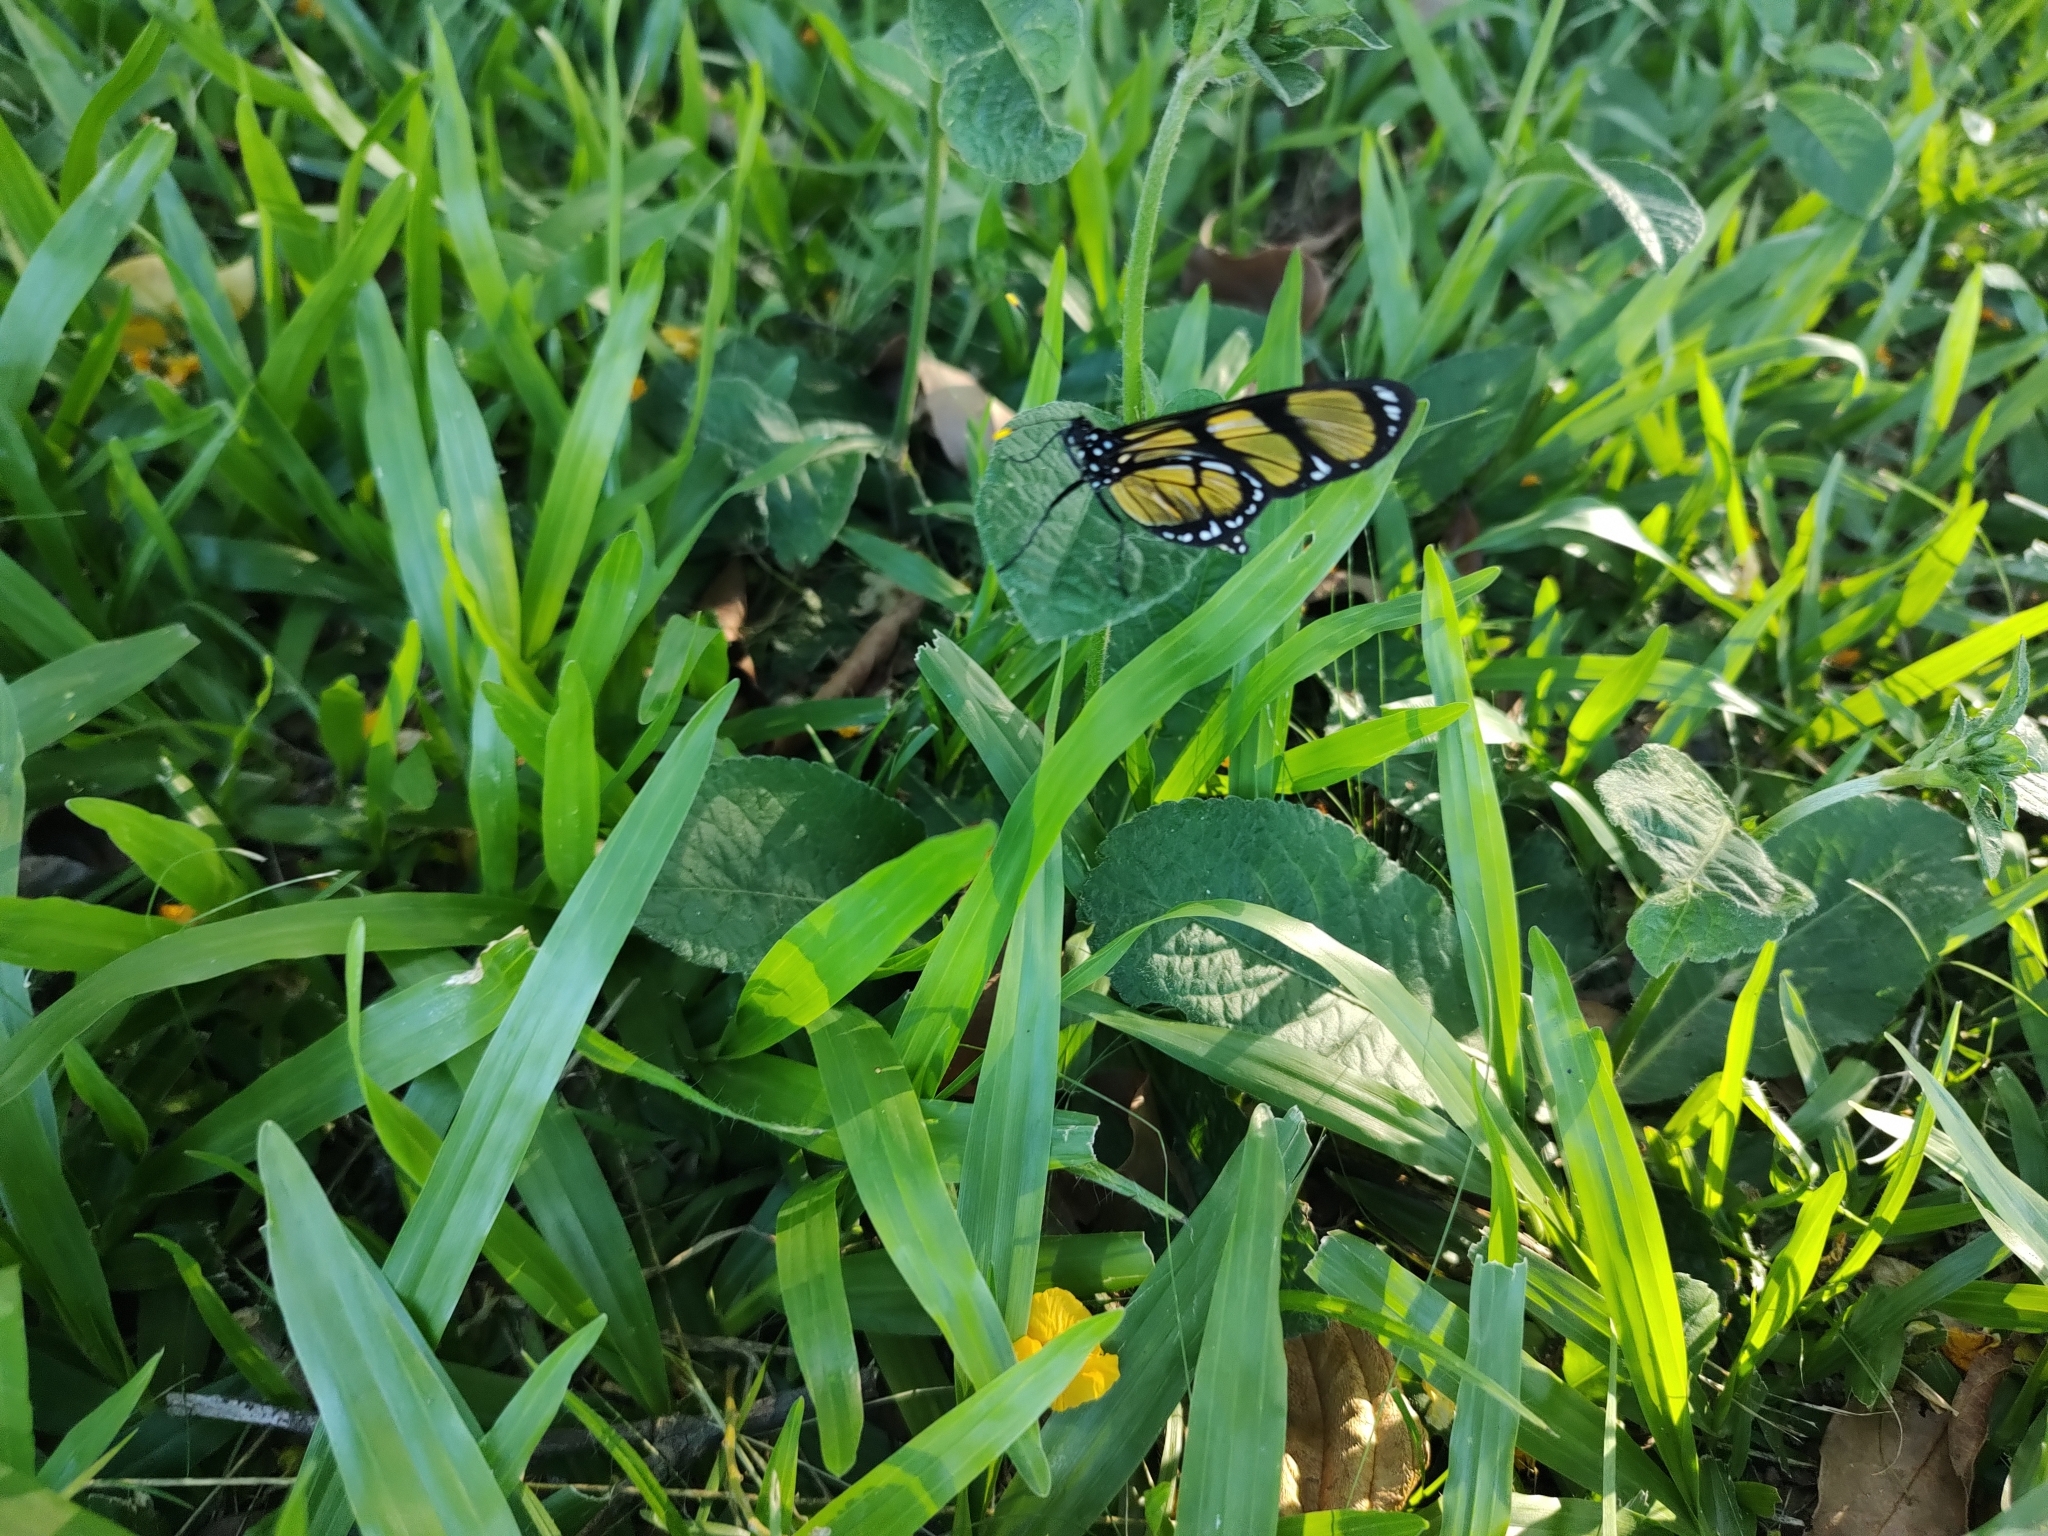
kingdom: Animalia
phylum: Arthropoda
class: Insecta
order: Lepidoptera
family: Nymphalidae
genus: Methona
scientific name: Methona themisto
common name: Themisto amberwing
